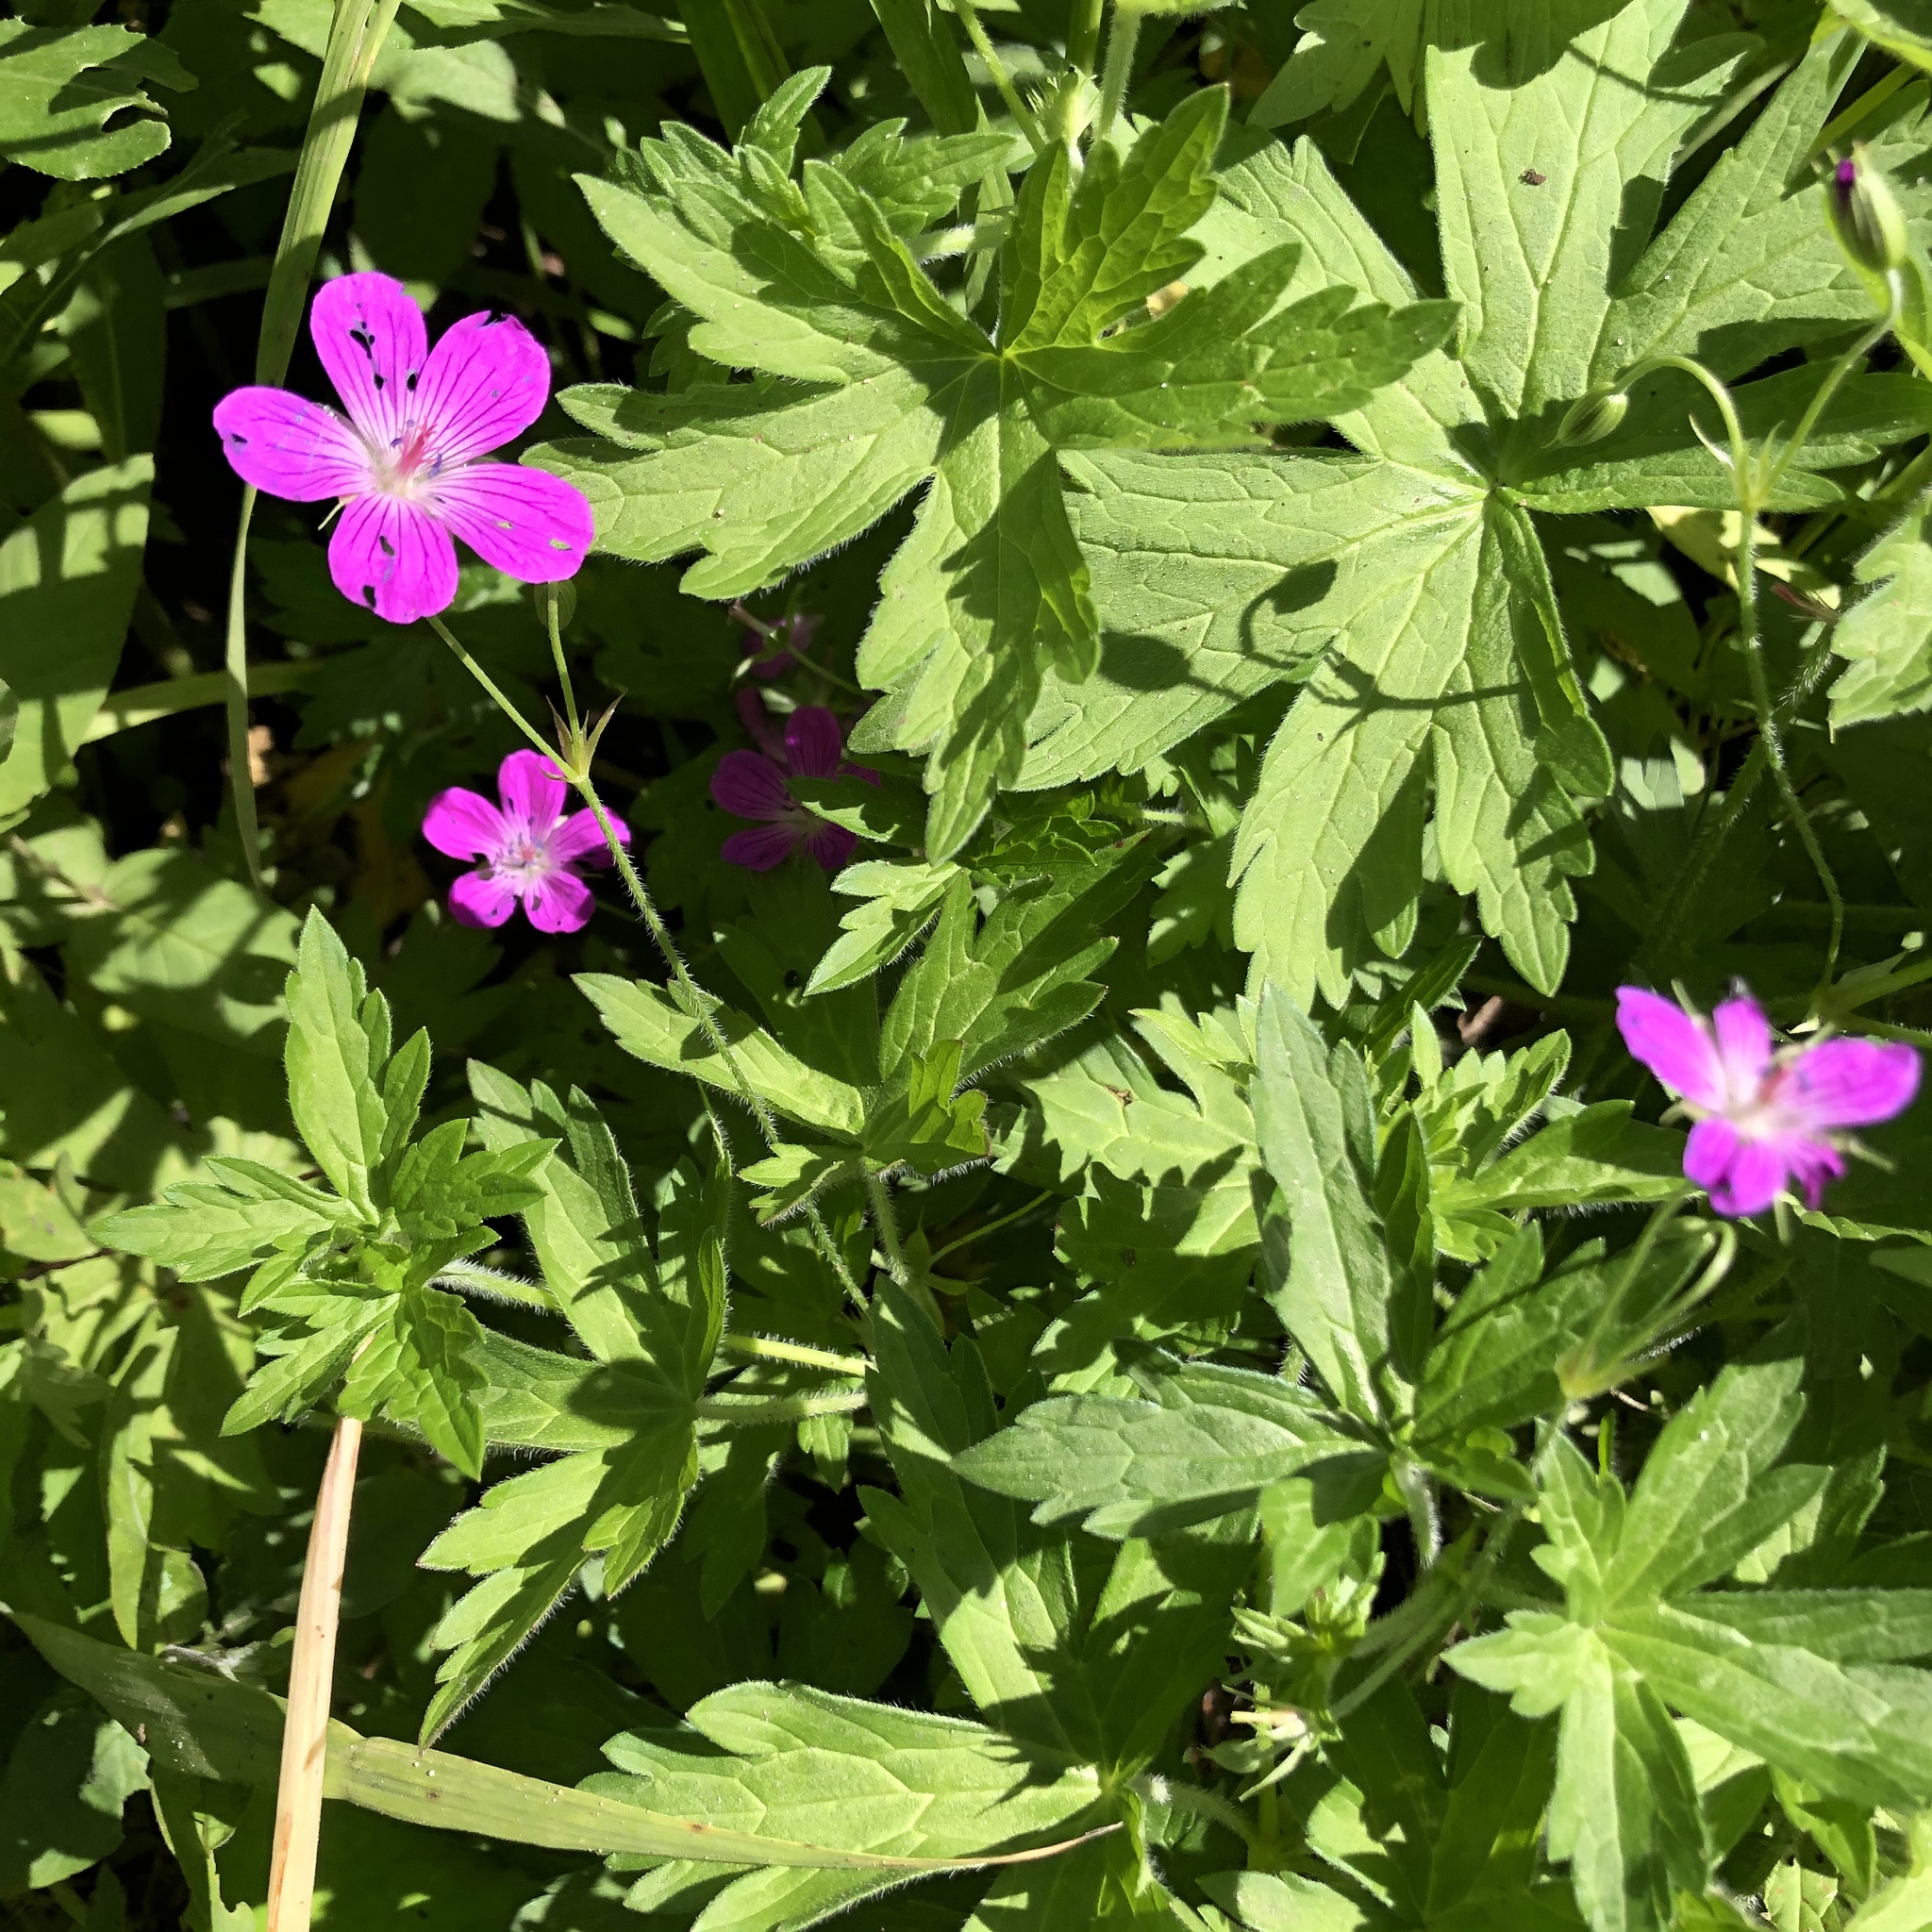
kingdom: Plantae
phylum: Tracheophyta
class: Magnoliopsida
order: Geraniales
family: Geraniaceae
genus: Geranium
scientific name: Geranium palustre
